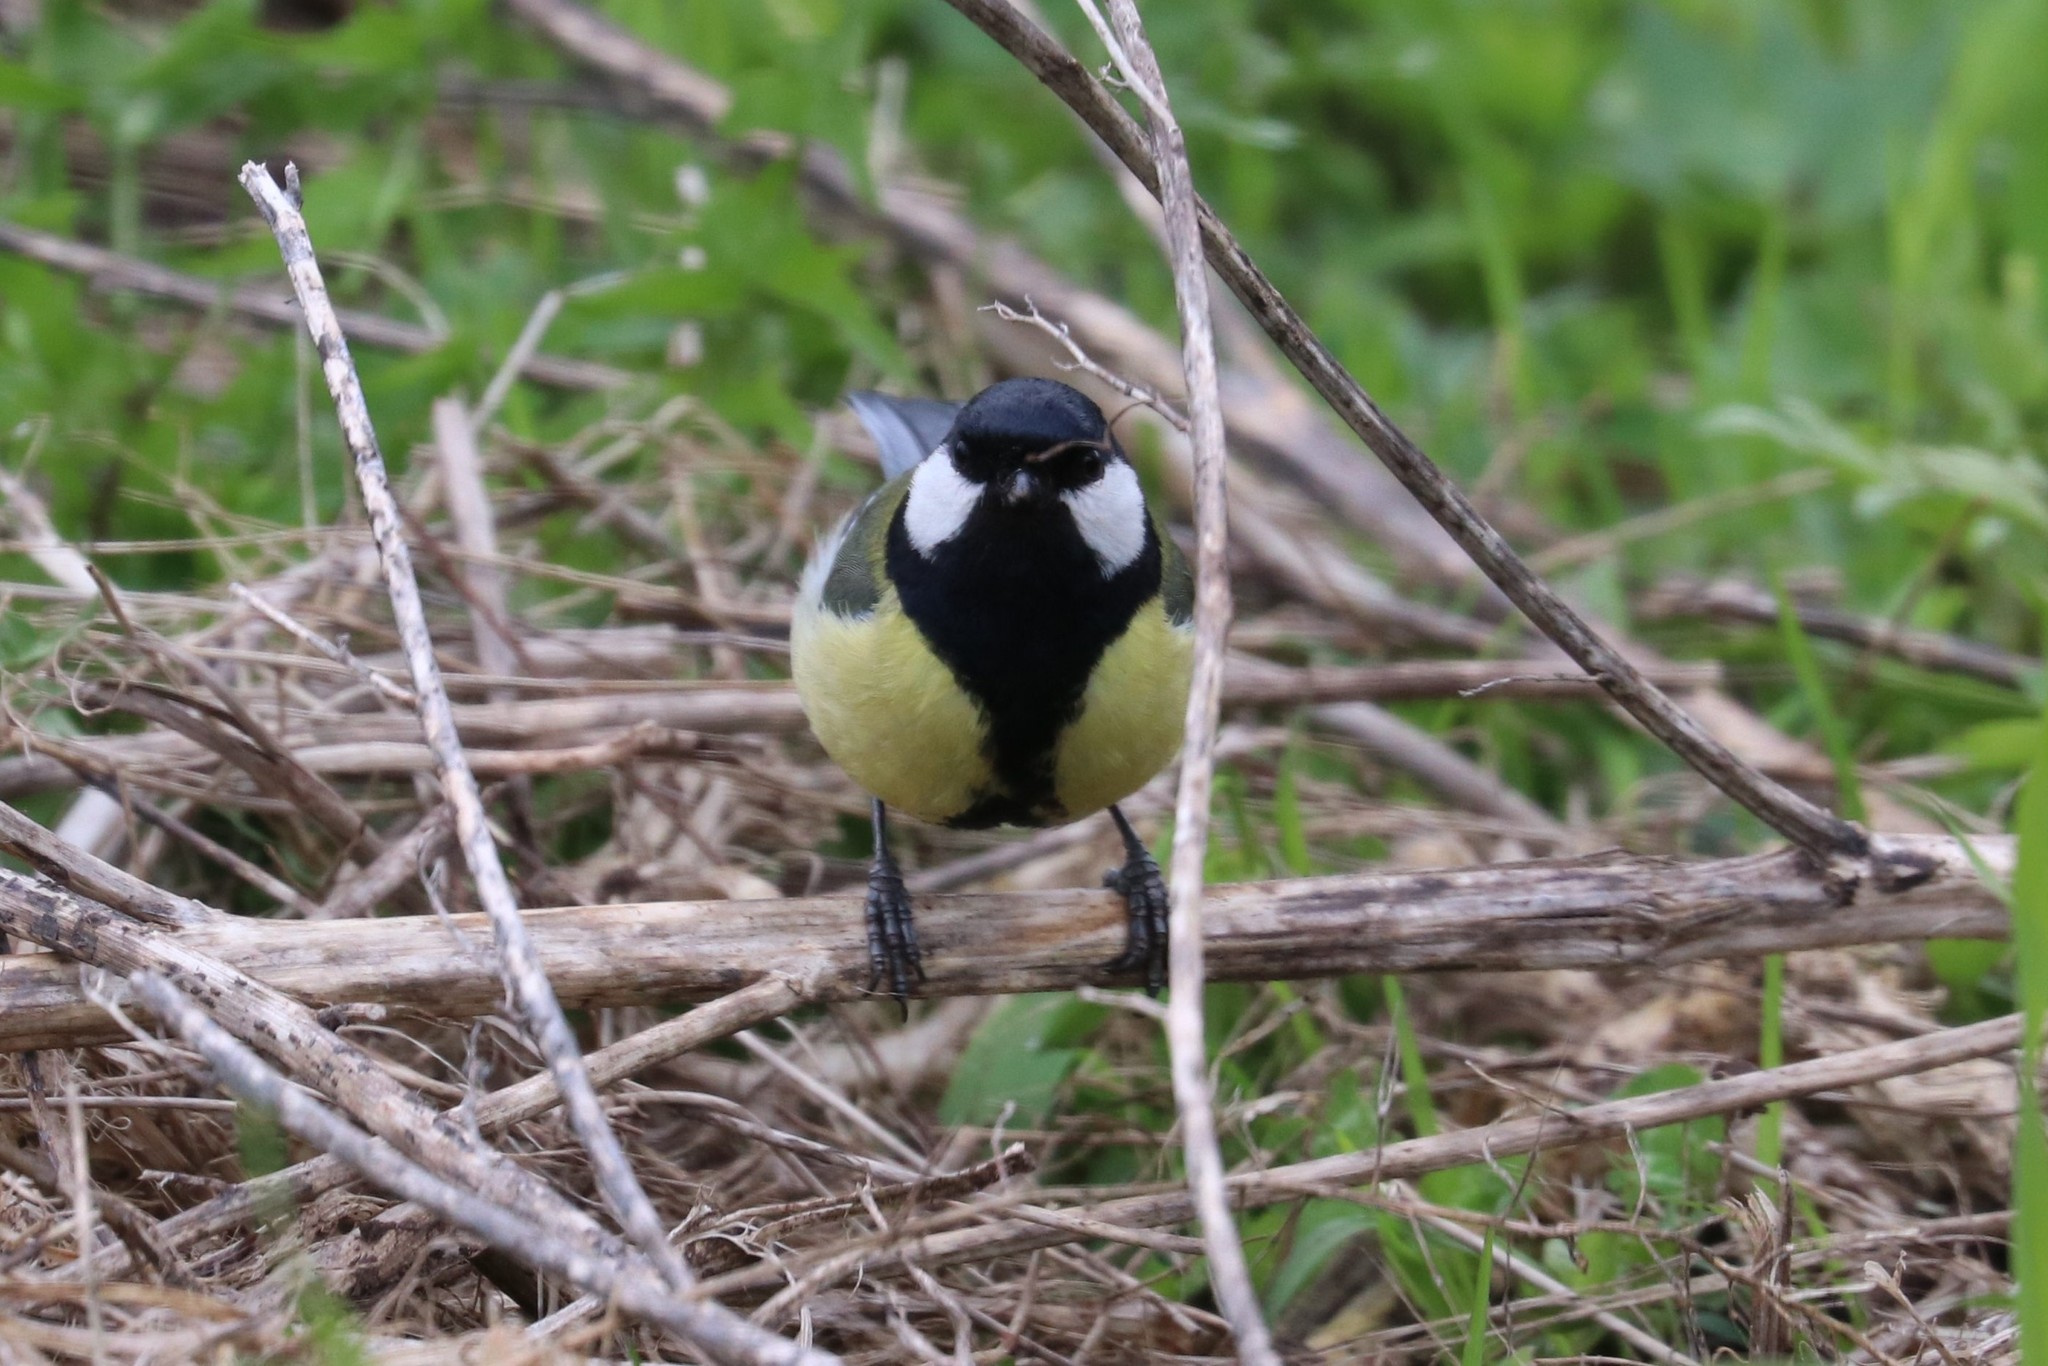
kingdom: Animalia
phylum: Chordata
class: Aves
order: Passeriformes
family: Paridae
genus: Parus
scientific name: Parus major
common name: Great tit
